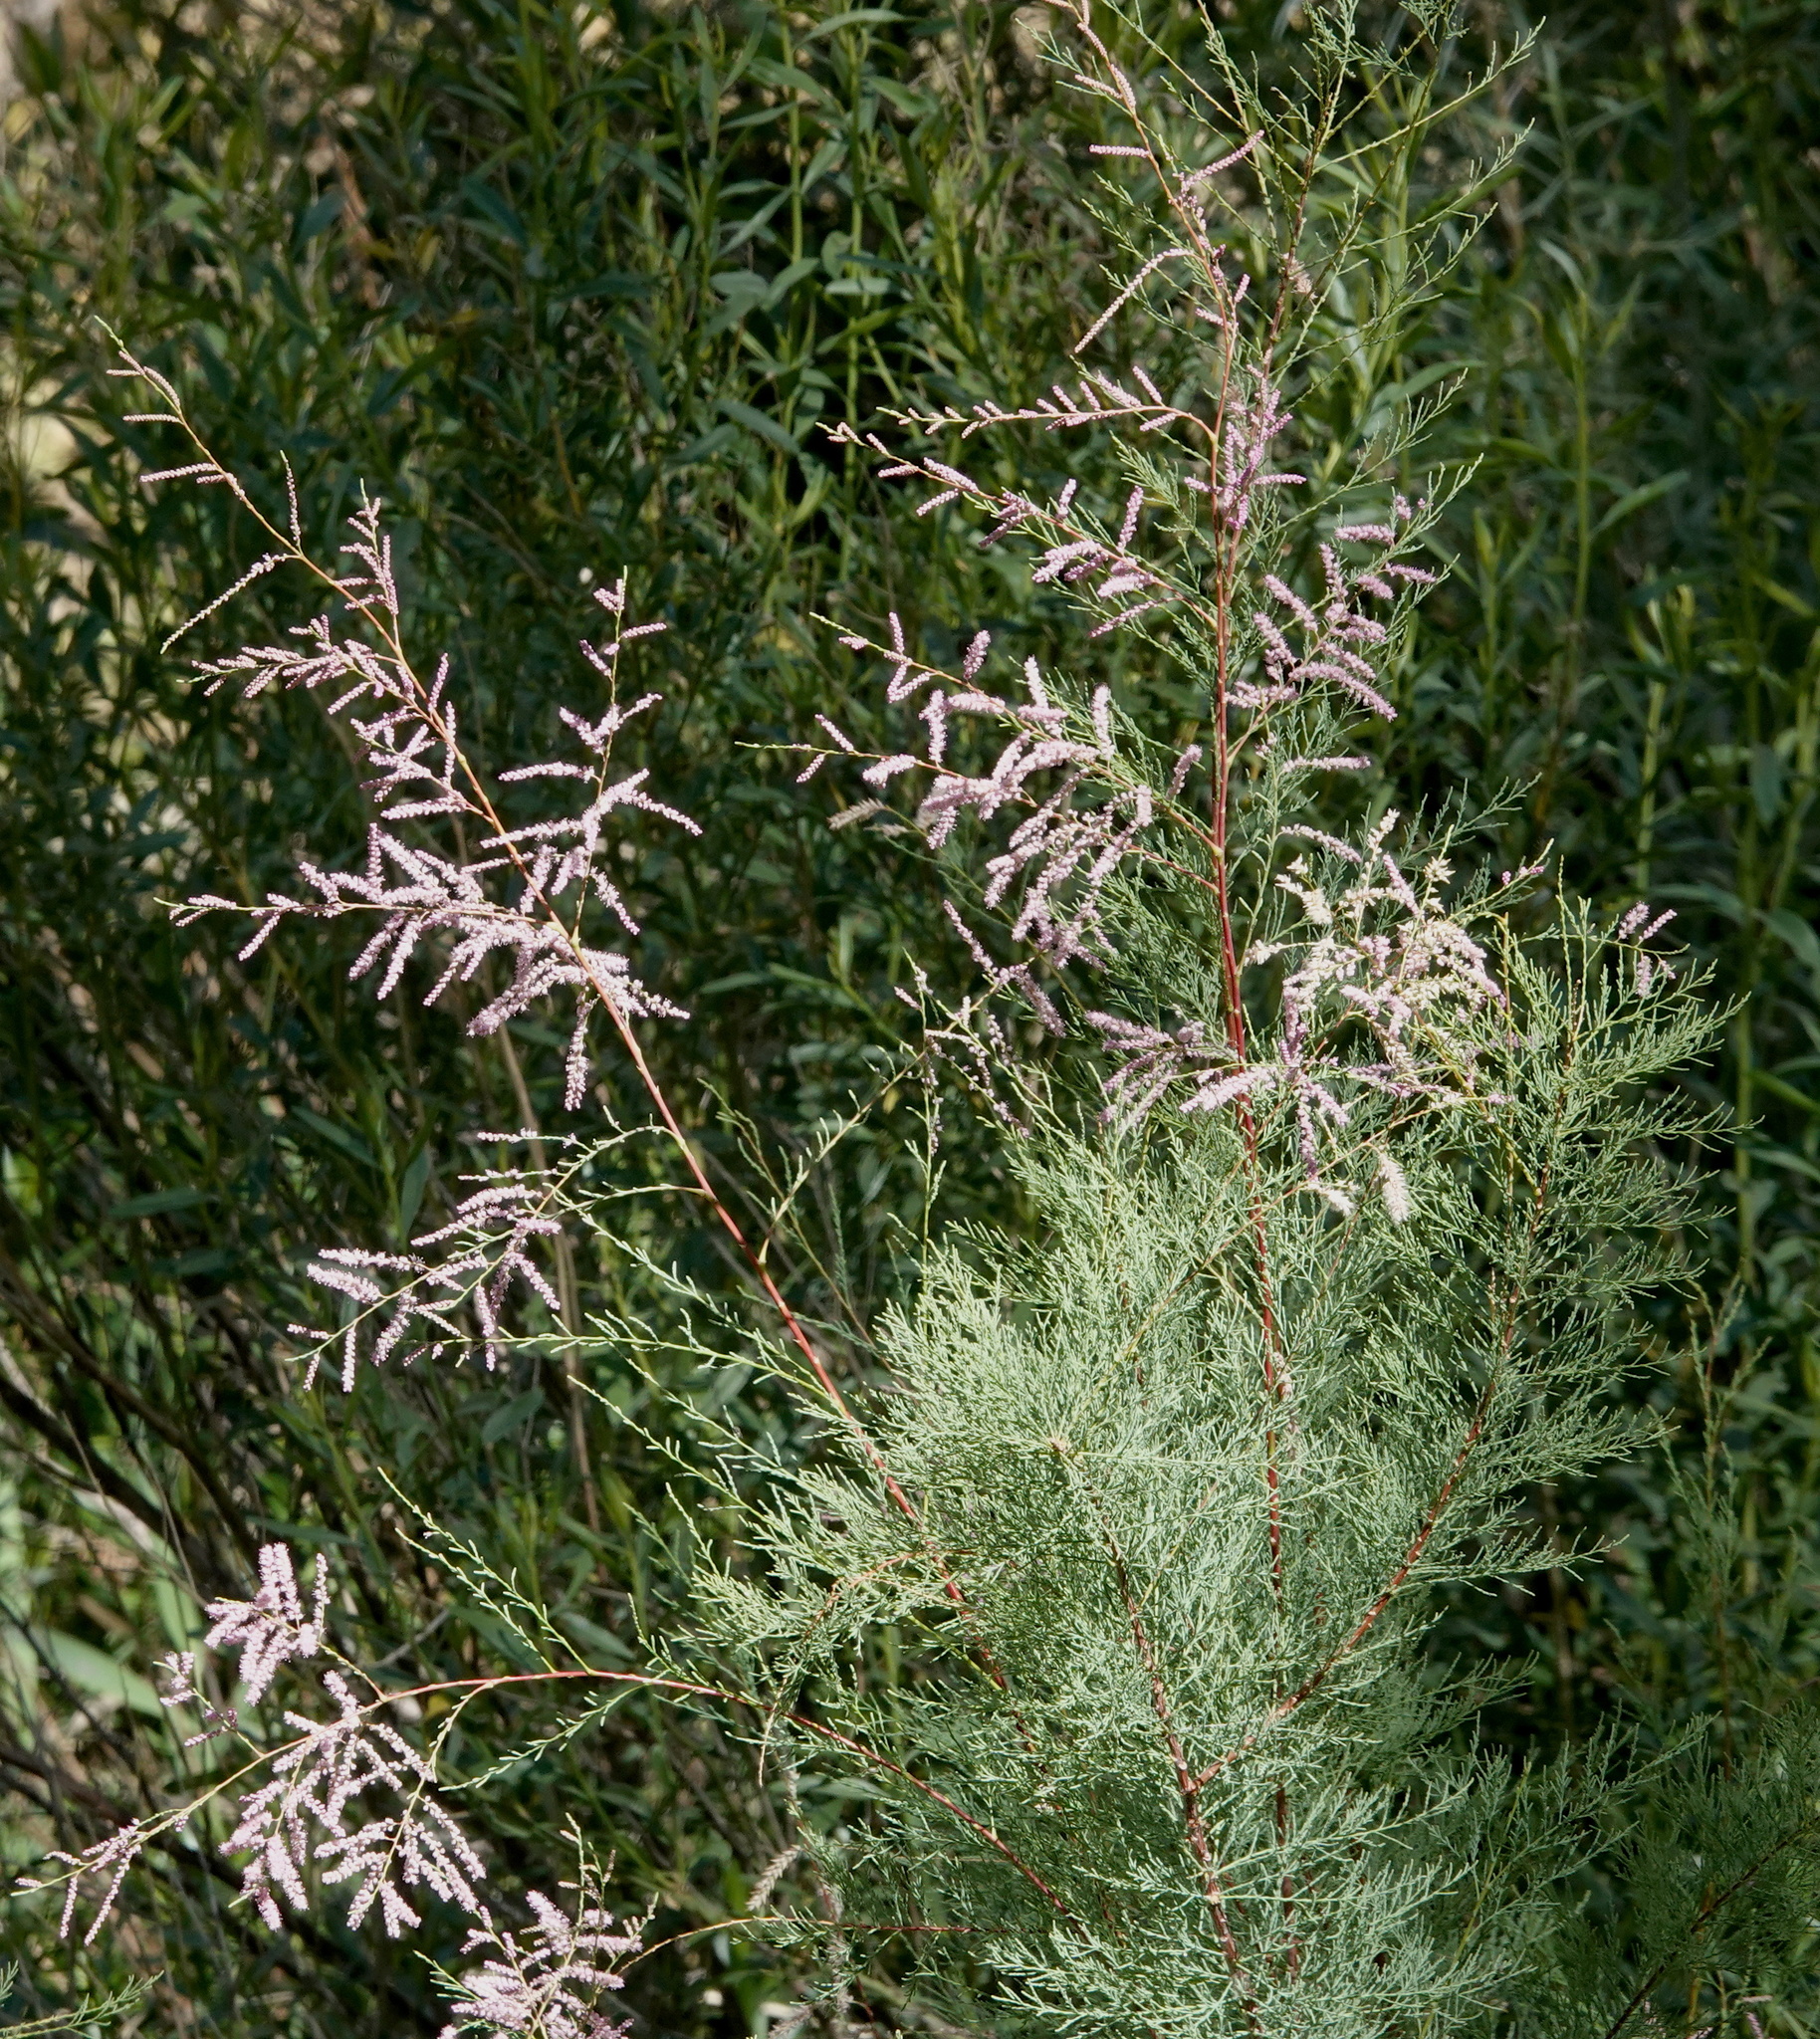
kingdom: Plantae
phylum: Tracheophyta
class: Magnoliopsida
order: Caryophyllales
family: Tamaricaceae
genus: Tamarix
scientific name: Tamarix ramosissima
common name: Pink tamarisk
